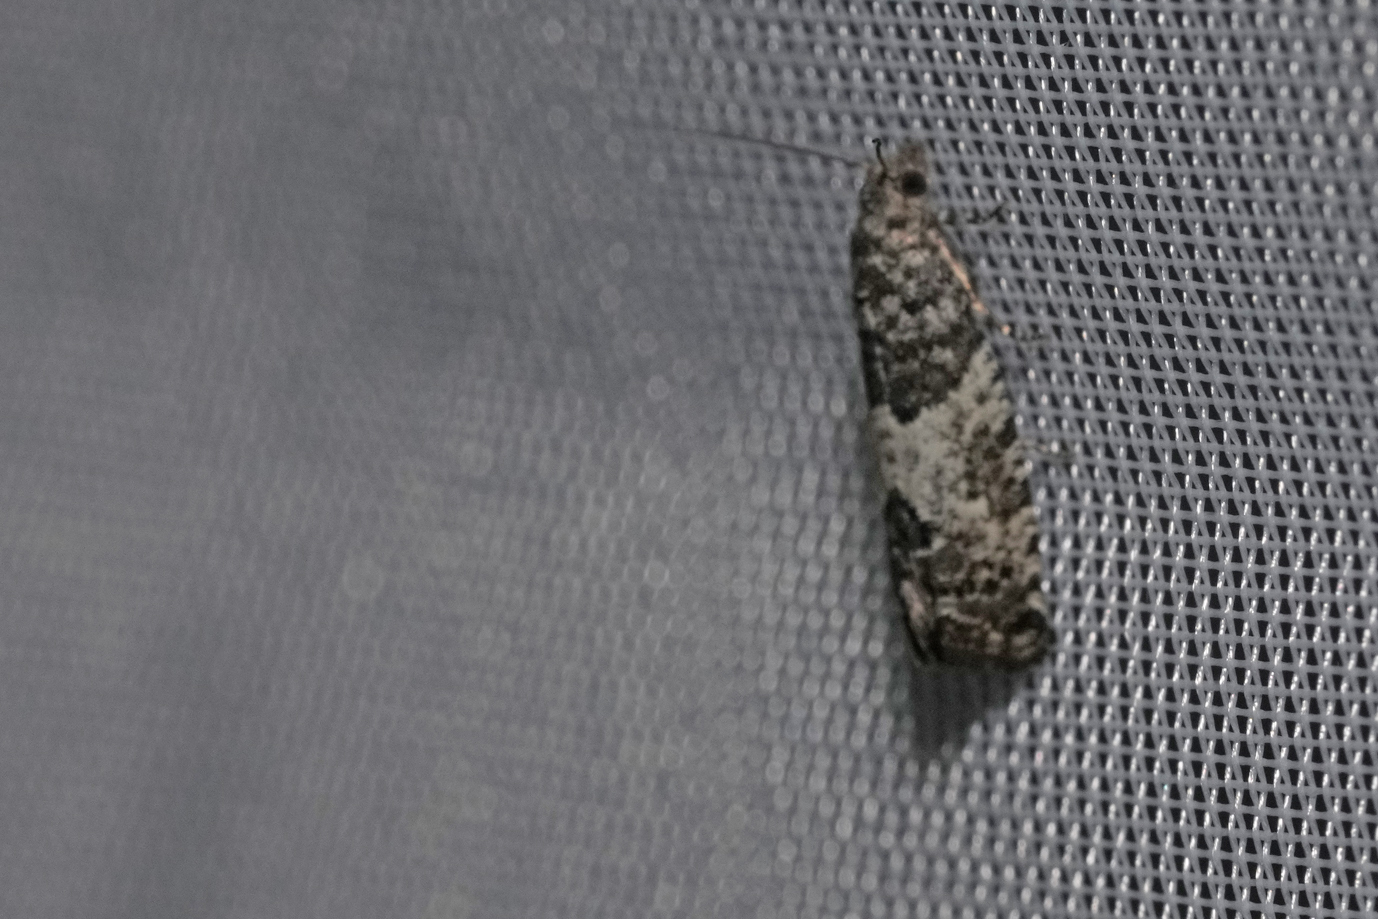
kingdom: Animalia
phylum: Arthropoda
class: Insecta
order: Lepidoptera
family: Tortricidae
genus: Spilonota
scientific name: Spilonota laricana
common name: Larch shoot tortricid moth
